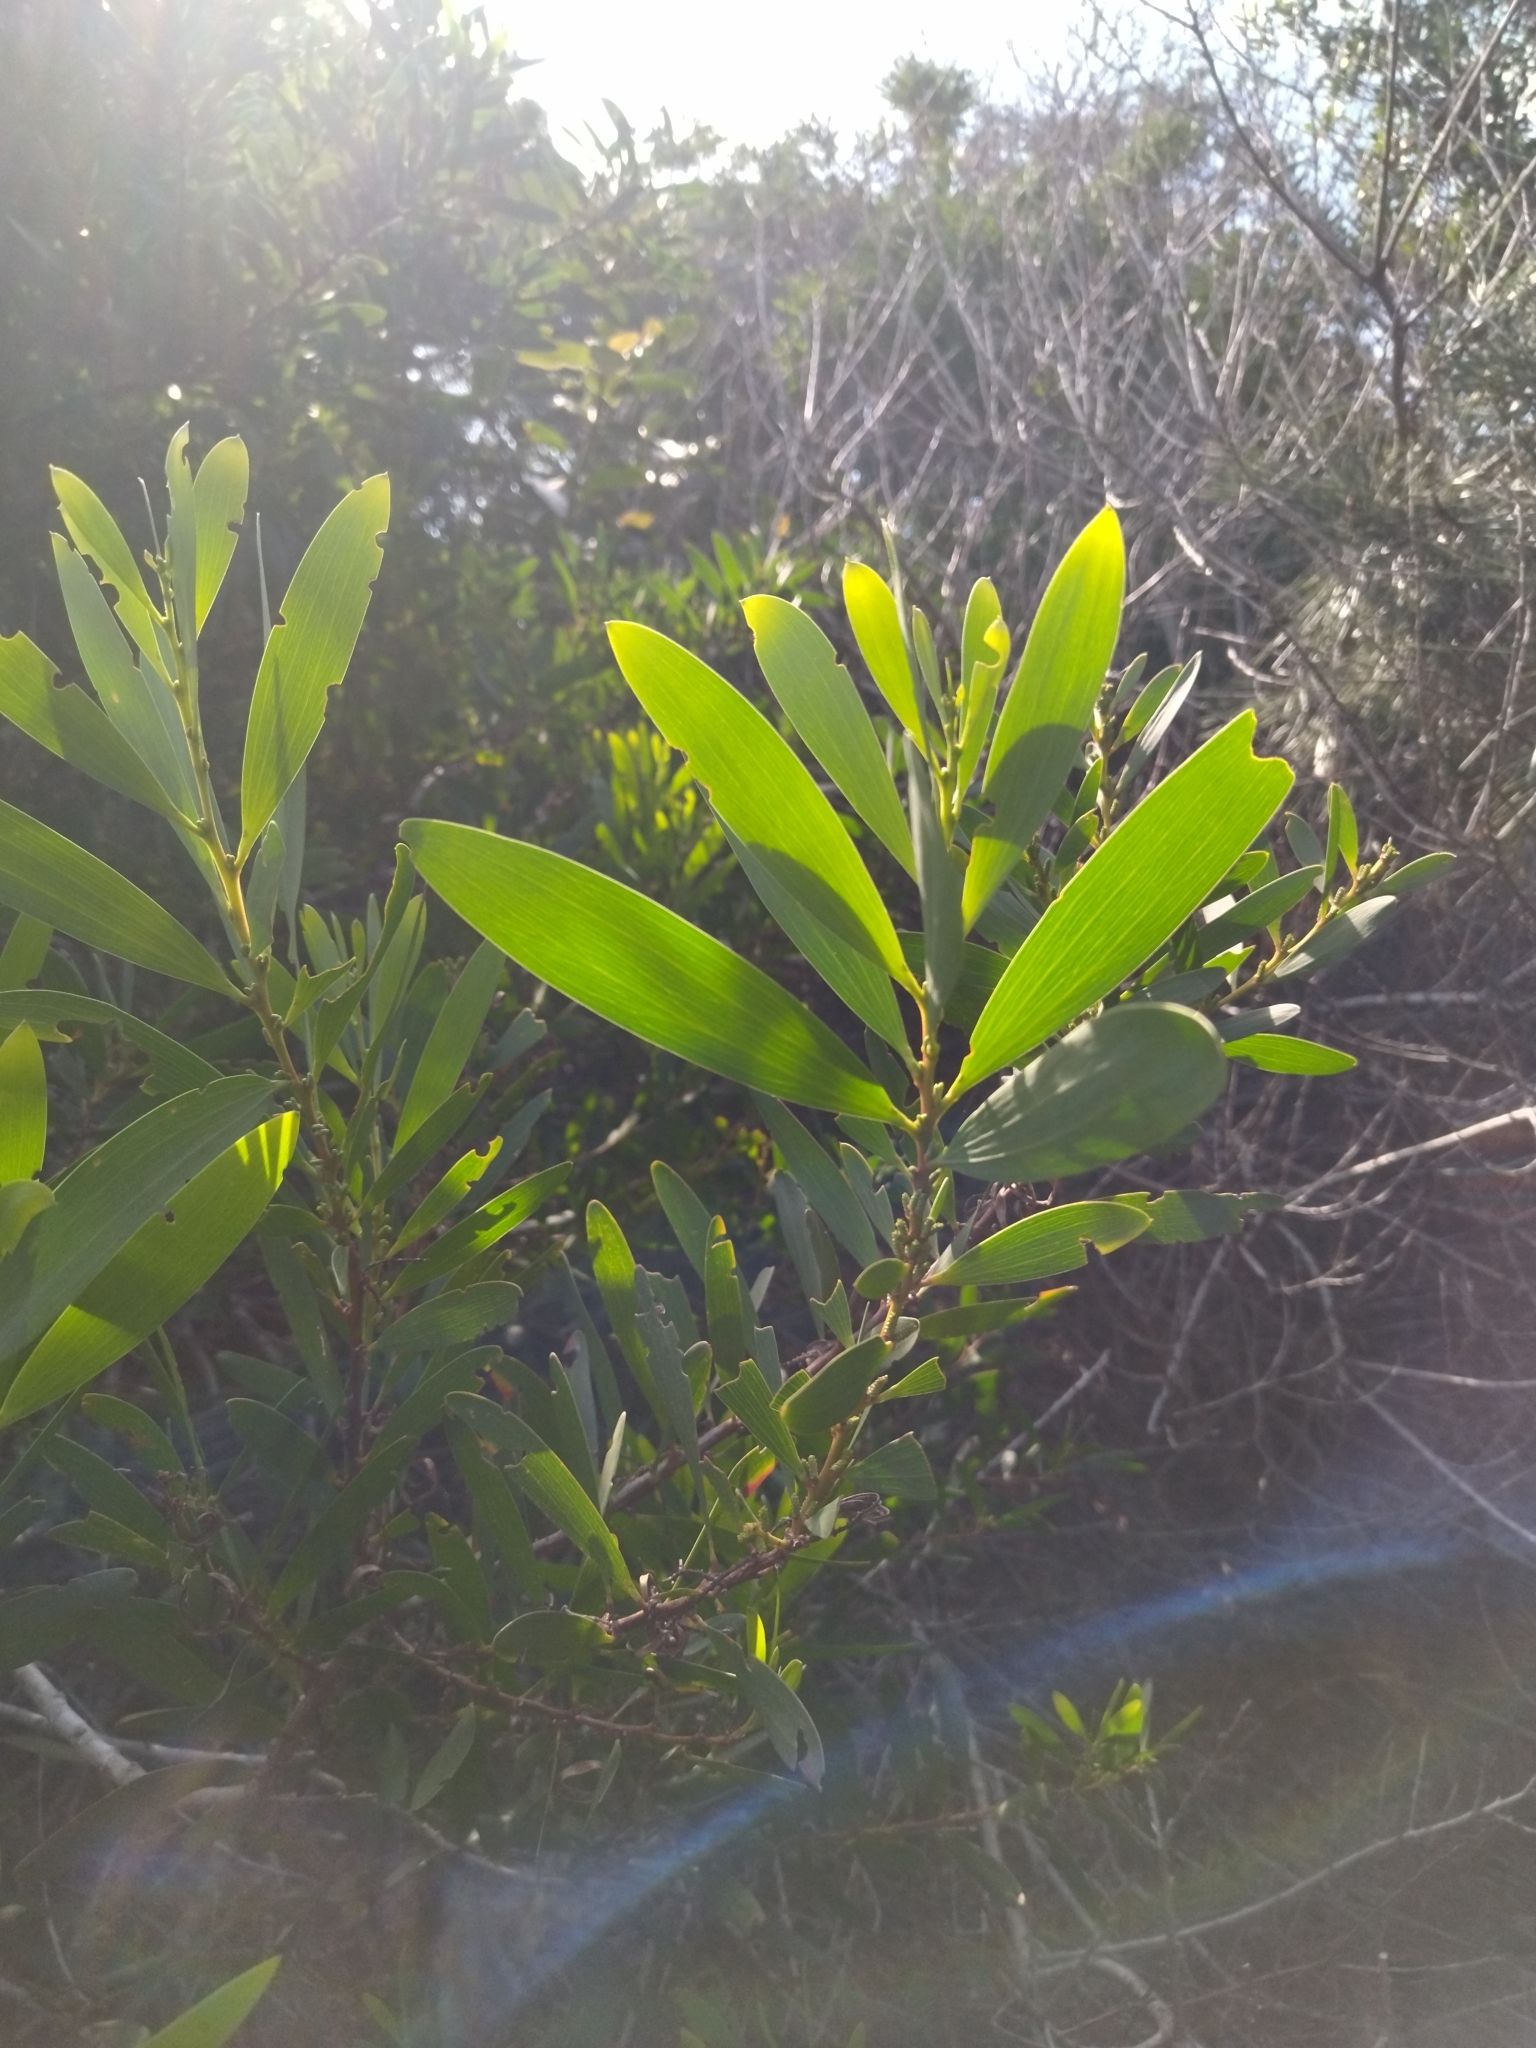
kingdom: Plantae
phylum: Tracheophyta
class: Magnoliopsida
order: Fabales
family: Fabaceae
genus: Acacia
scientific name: Acacia longifolia
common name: Sydney golden wattle
